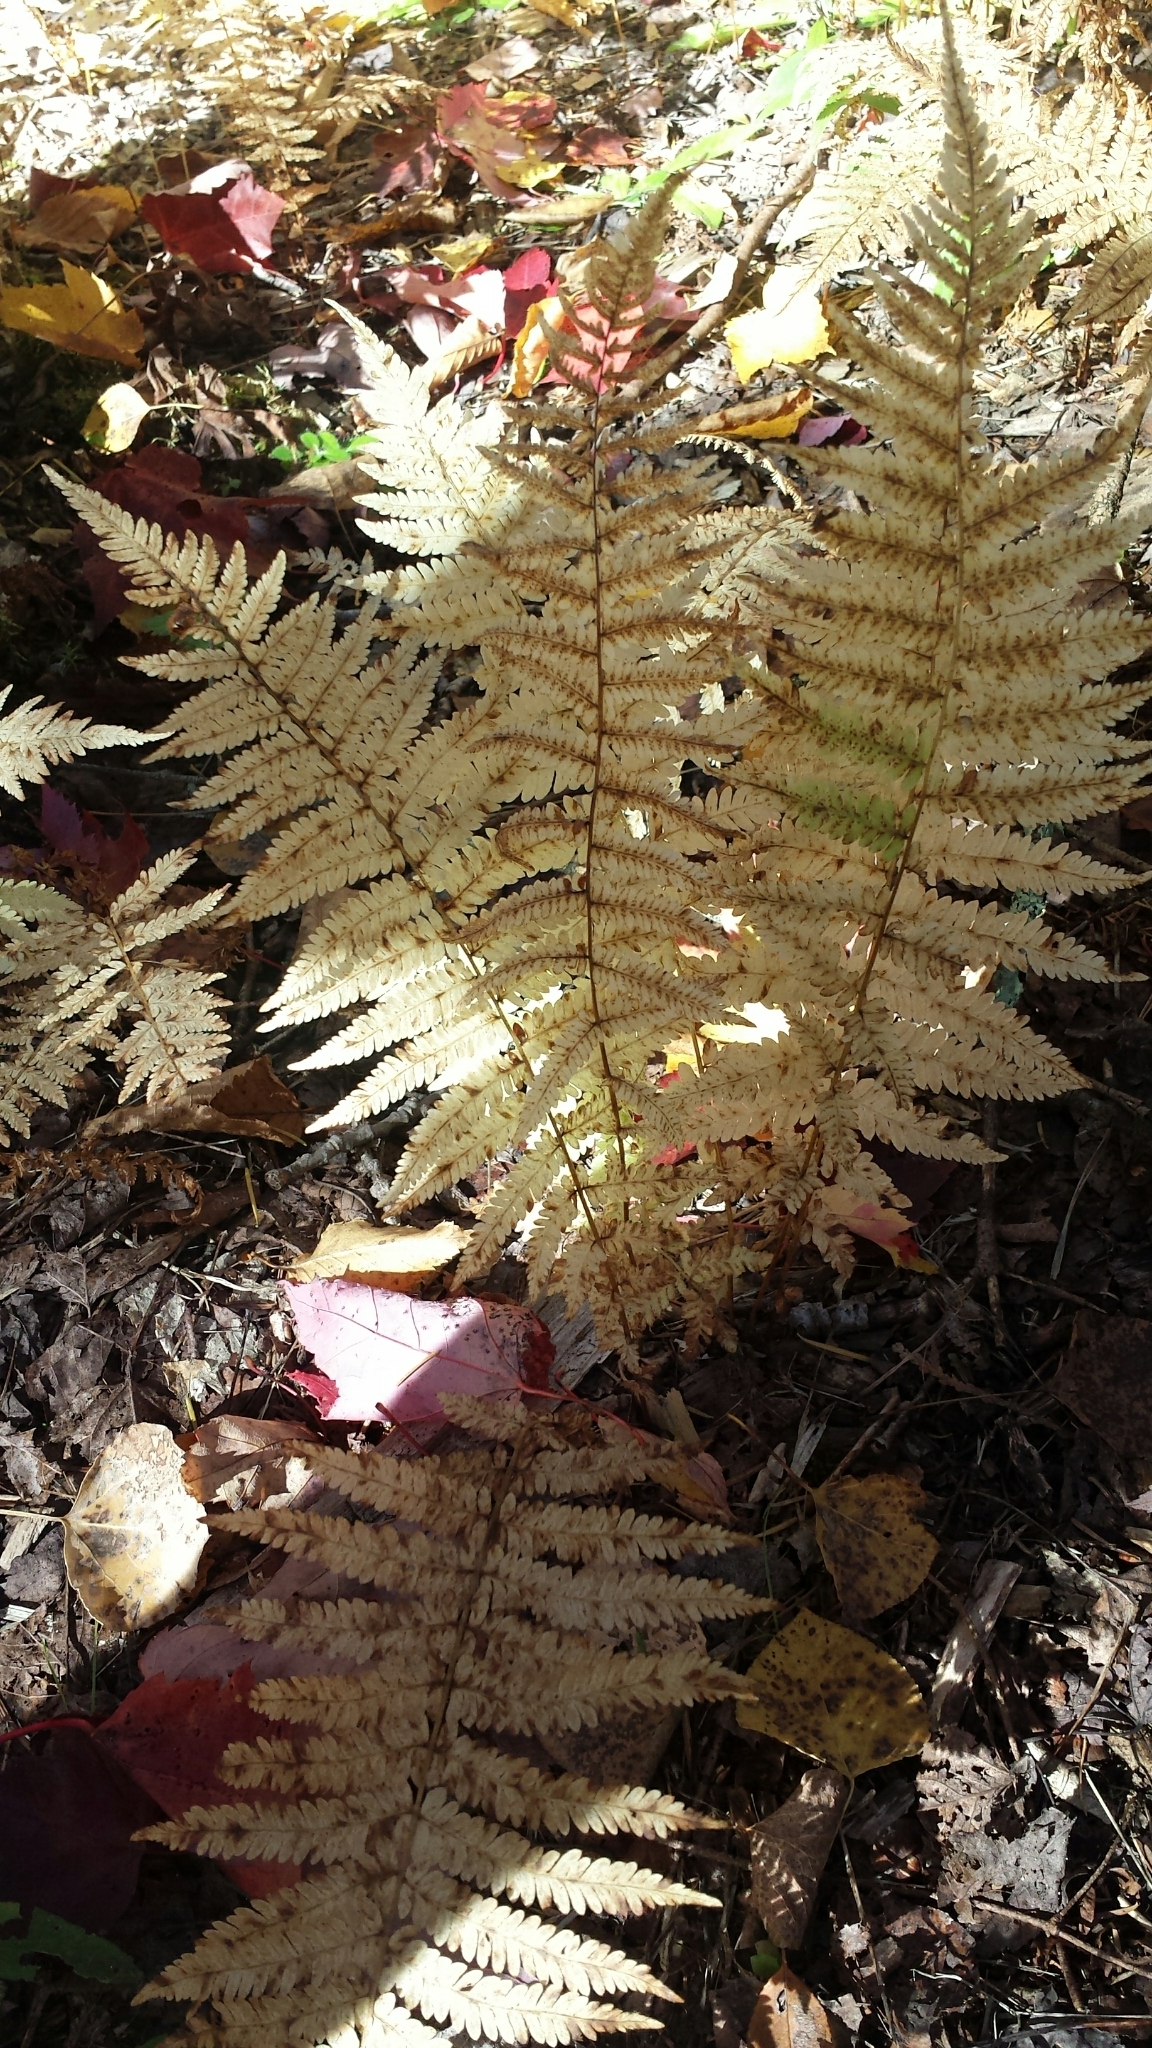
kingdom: Plantae
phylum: Tracheophyta
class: Polypodiopsida
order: Polypodiales
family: Thelypteridaceae
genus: Amauropelta
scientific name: Amauropelta noveboracensis
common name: New york fern
